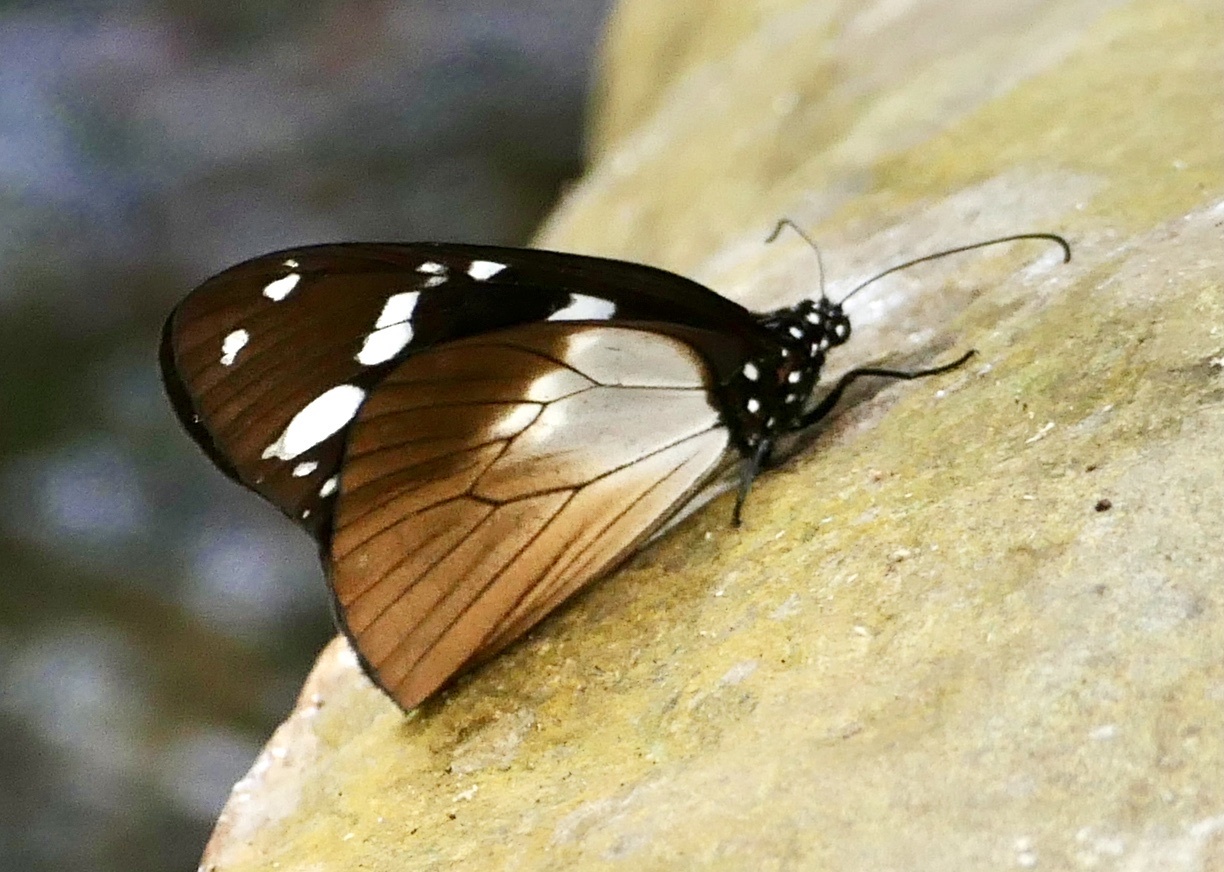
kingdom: Animalia
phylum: Arthropoda
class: Insecta
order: Lepidoptera
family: Nymphalidae
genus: Amauris
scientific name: Amauris tartarea
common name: Monk
